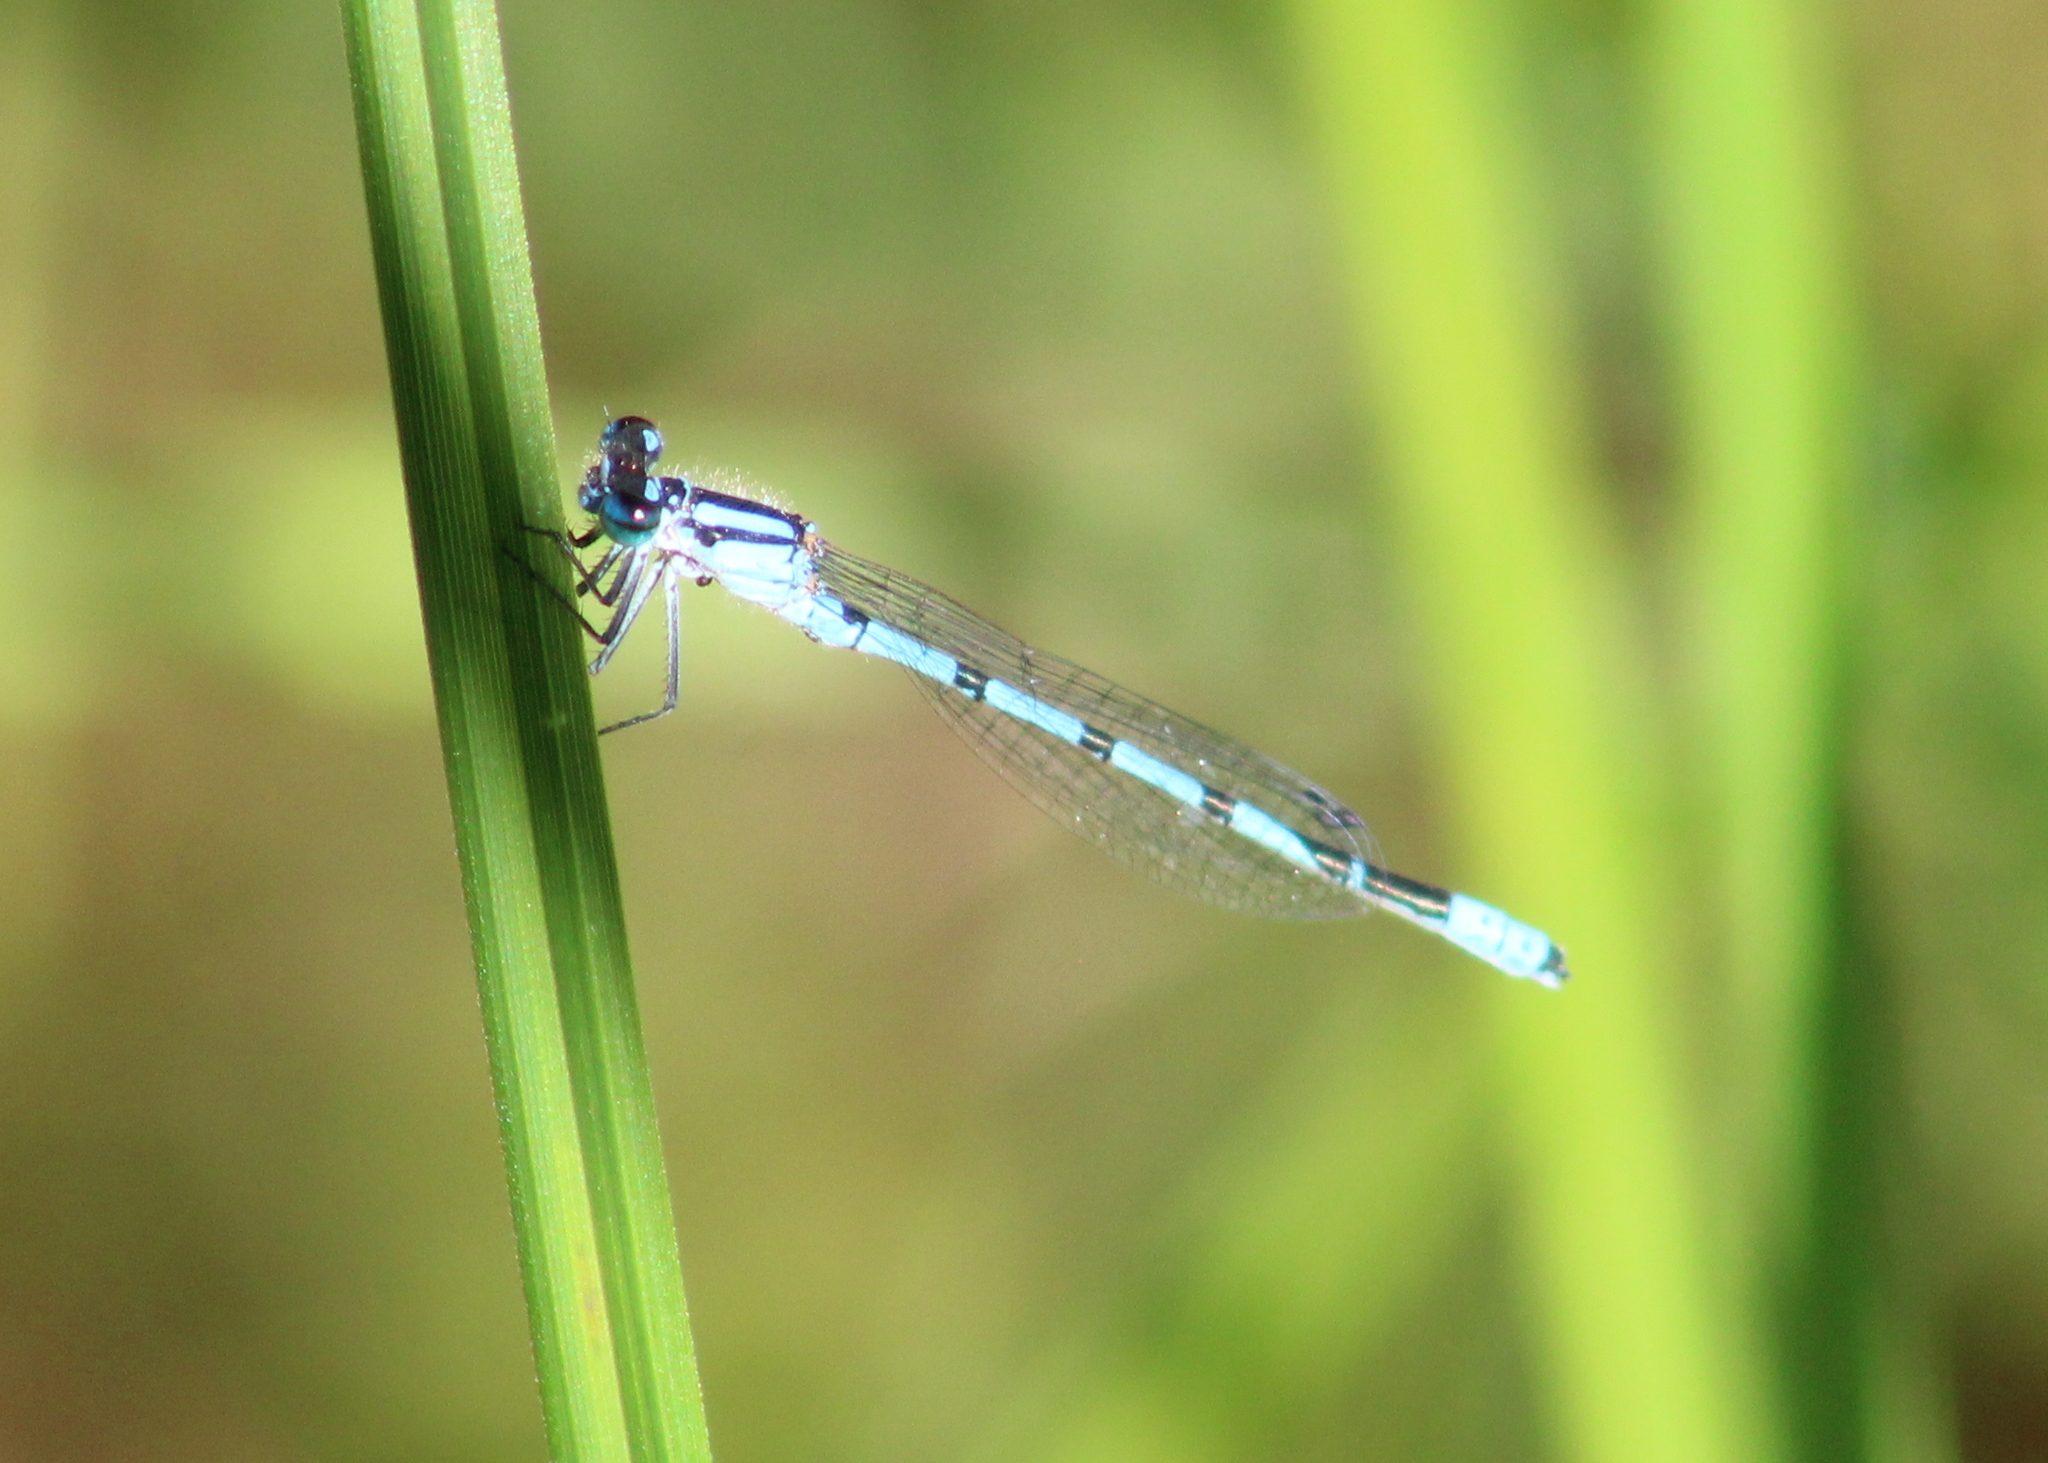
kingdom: Animalia
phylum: Arthropoda
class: Insecta
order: Odonata
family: Coenagrionidae
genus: Enallagma
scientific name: Enallagma ebrium
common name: Marsh bluet
